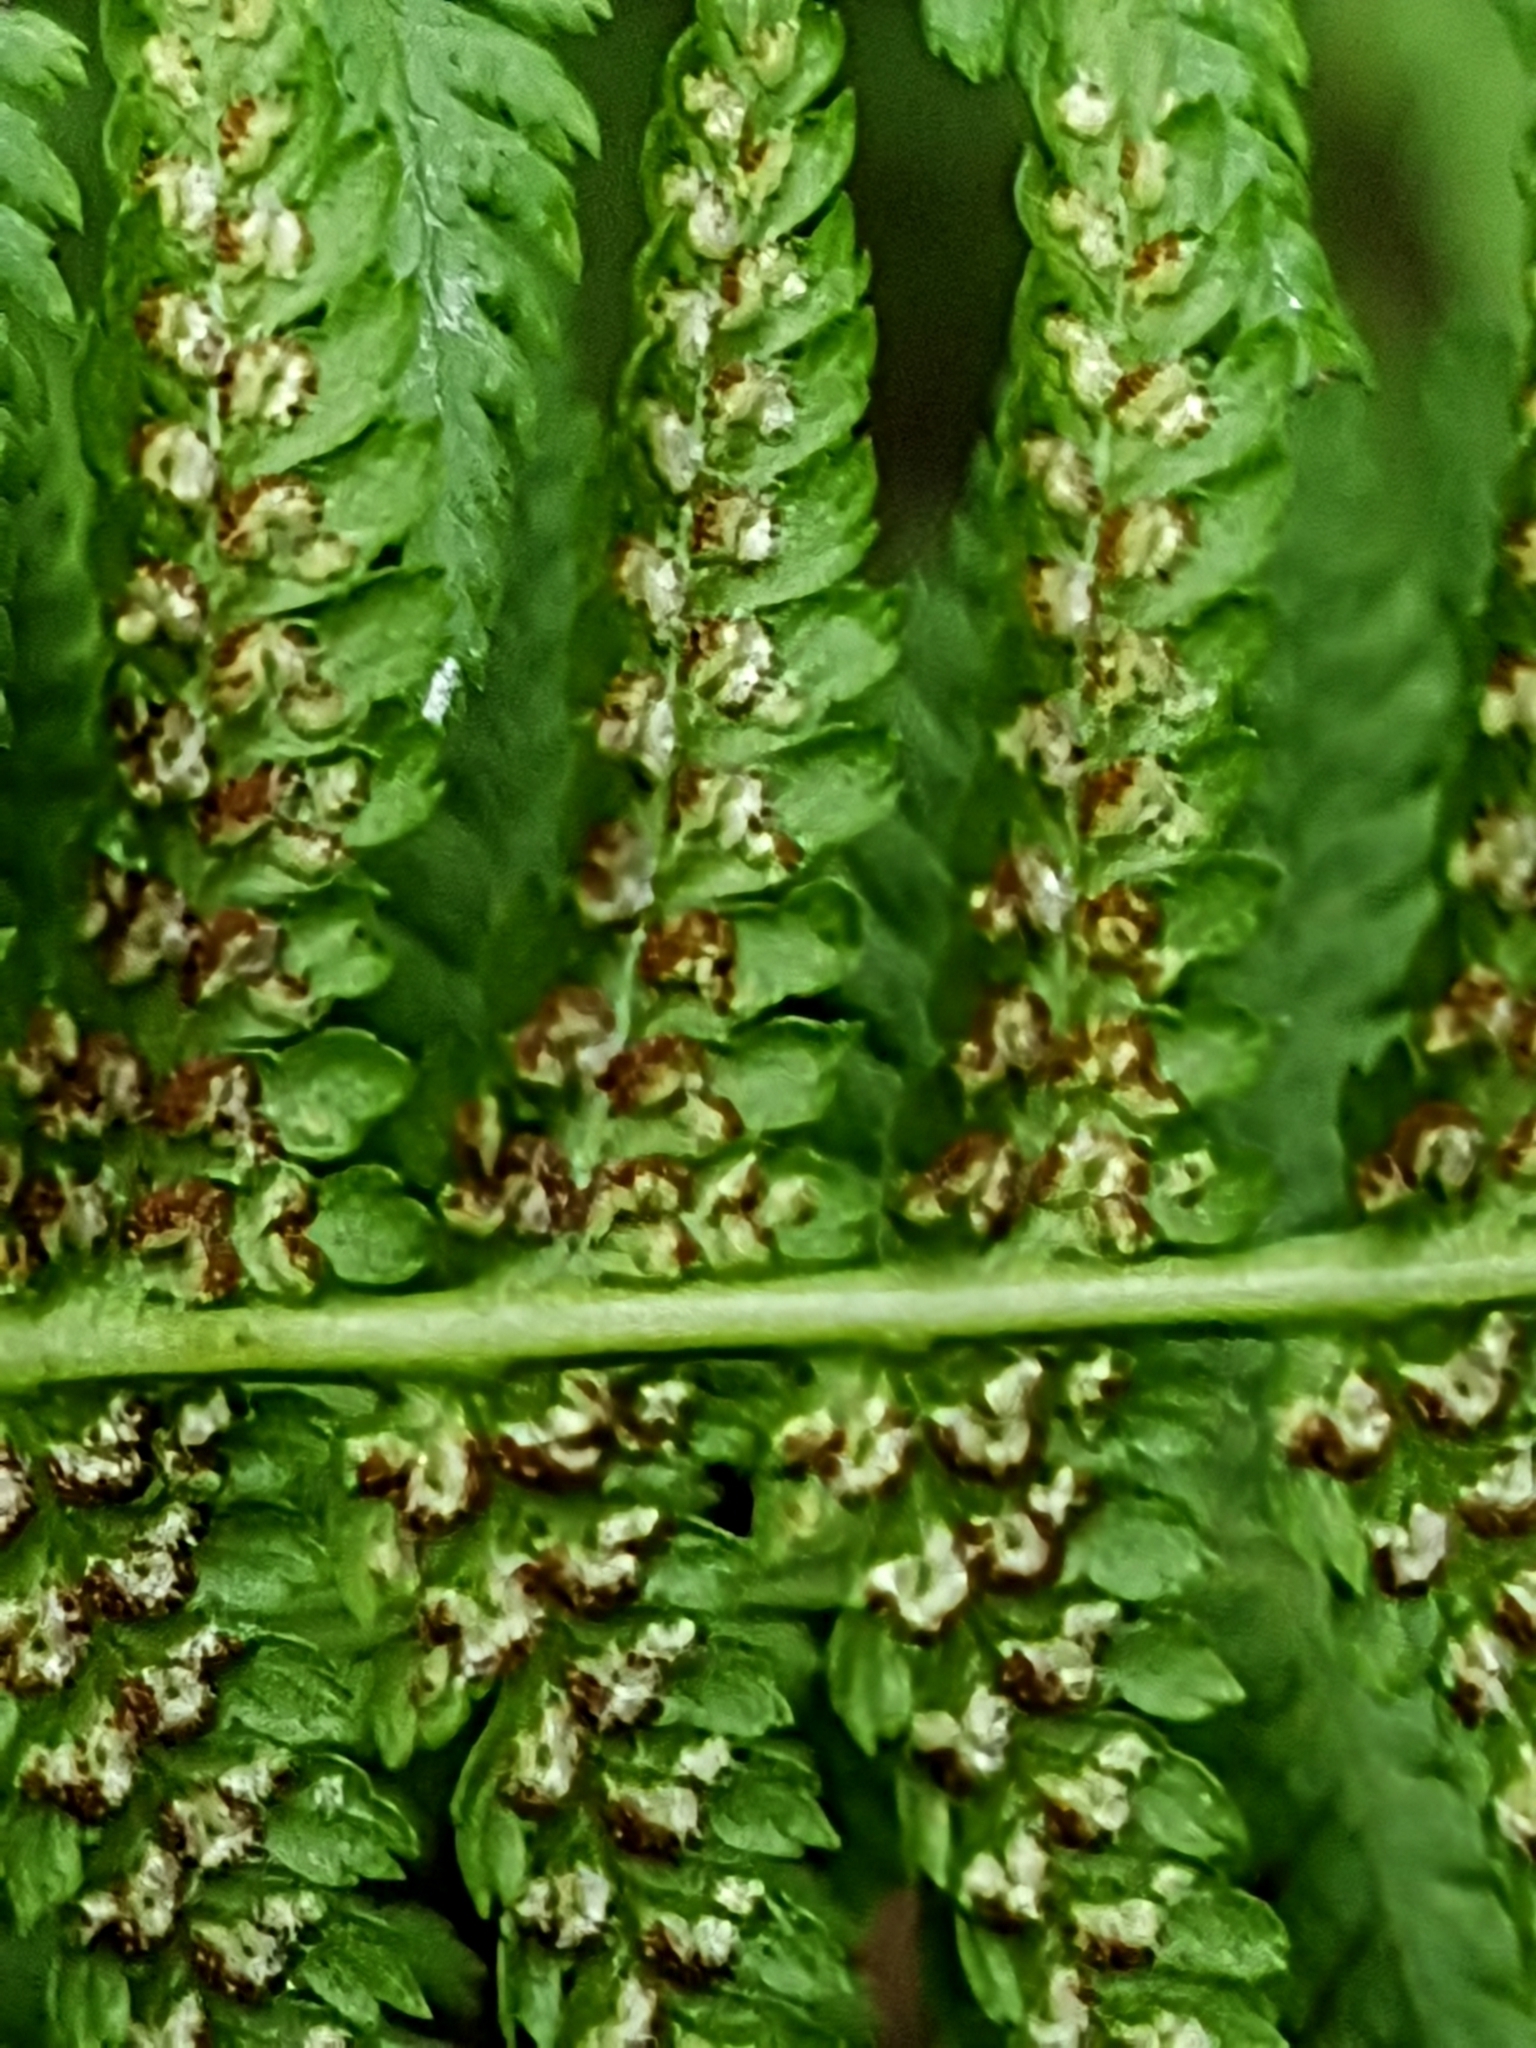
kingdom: Plantae
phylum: Tracheophyta
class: Polypodiopsida
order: Polypodiales
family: Athyriaceae
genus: Athyrium
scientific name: Athyrium filix-femina
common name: Lady fern
